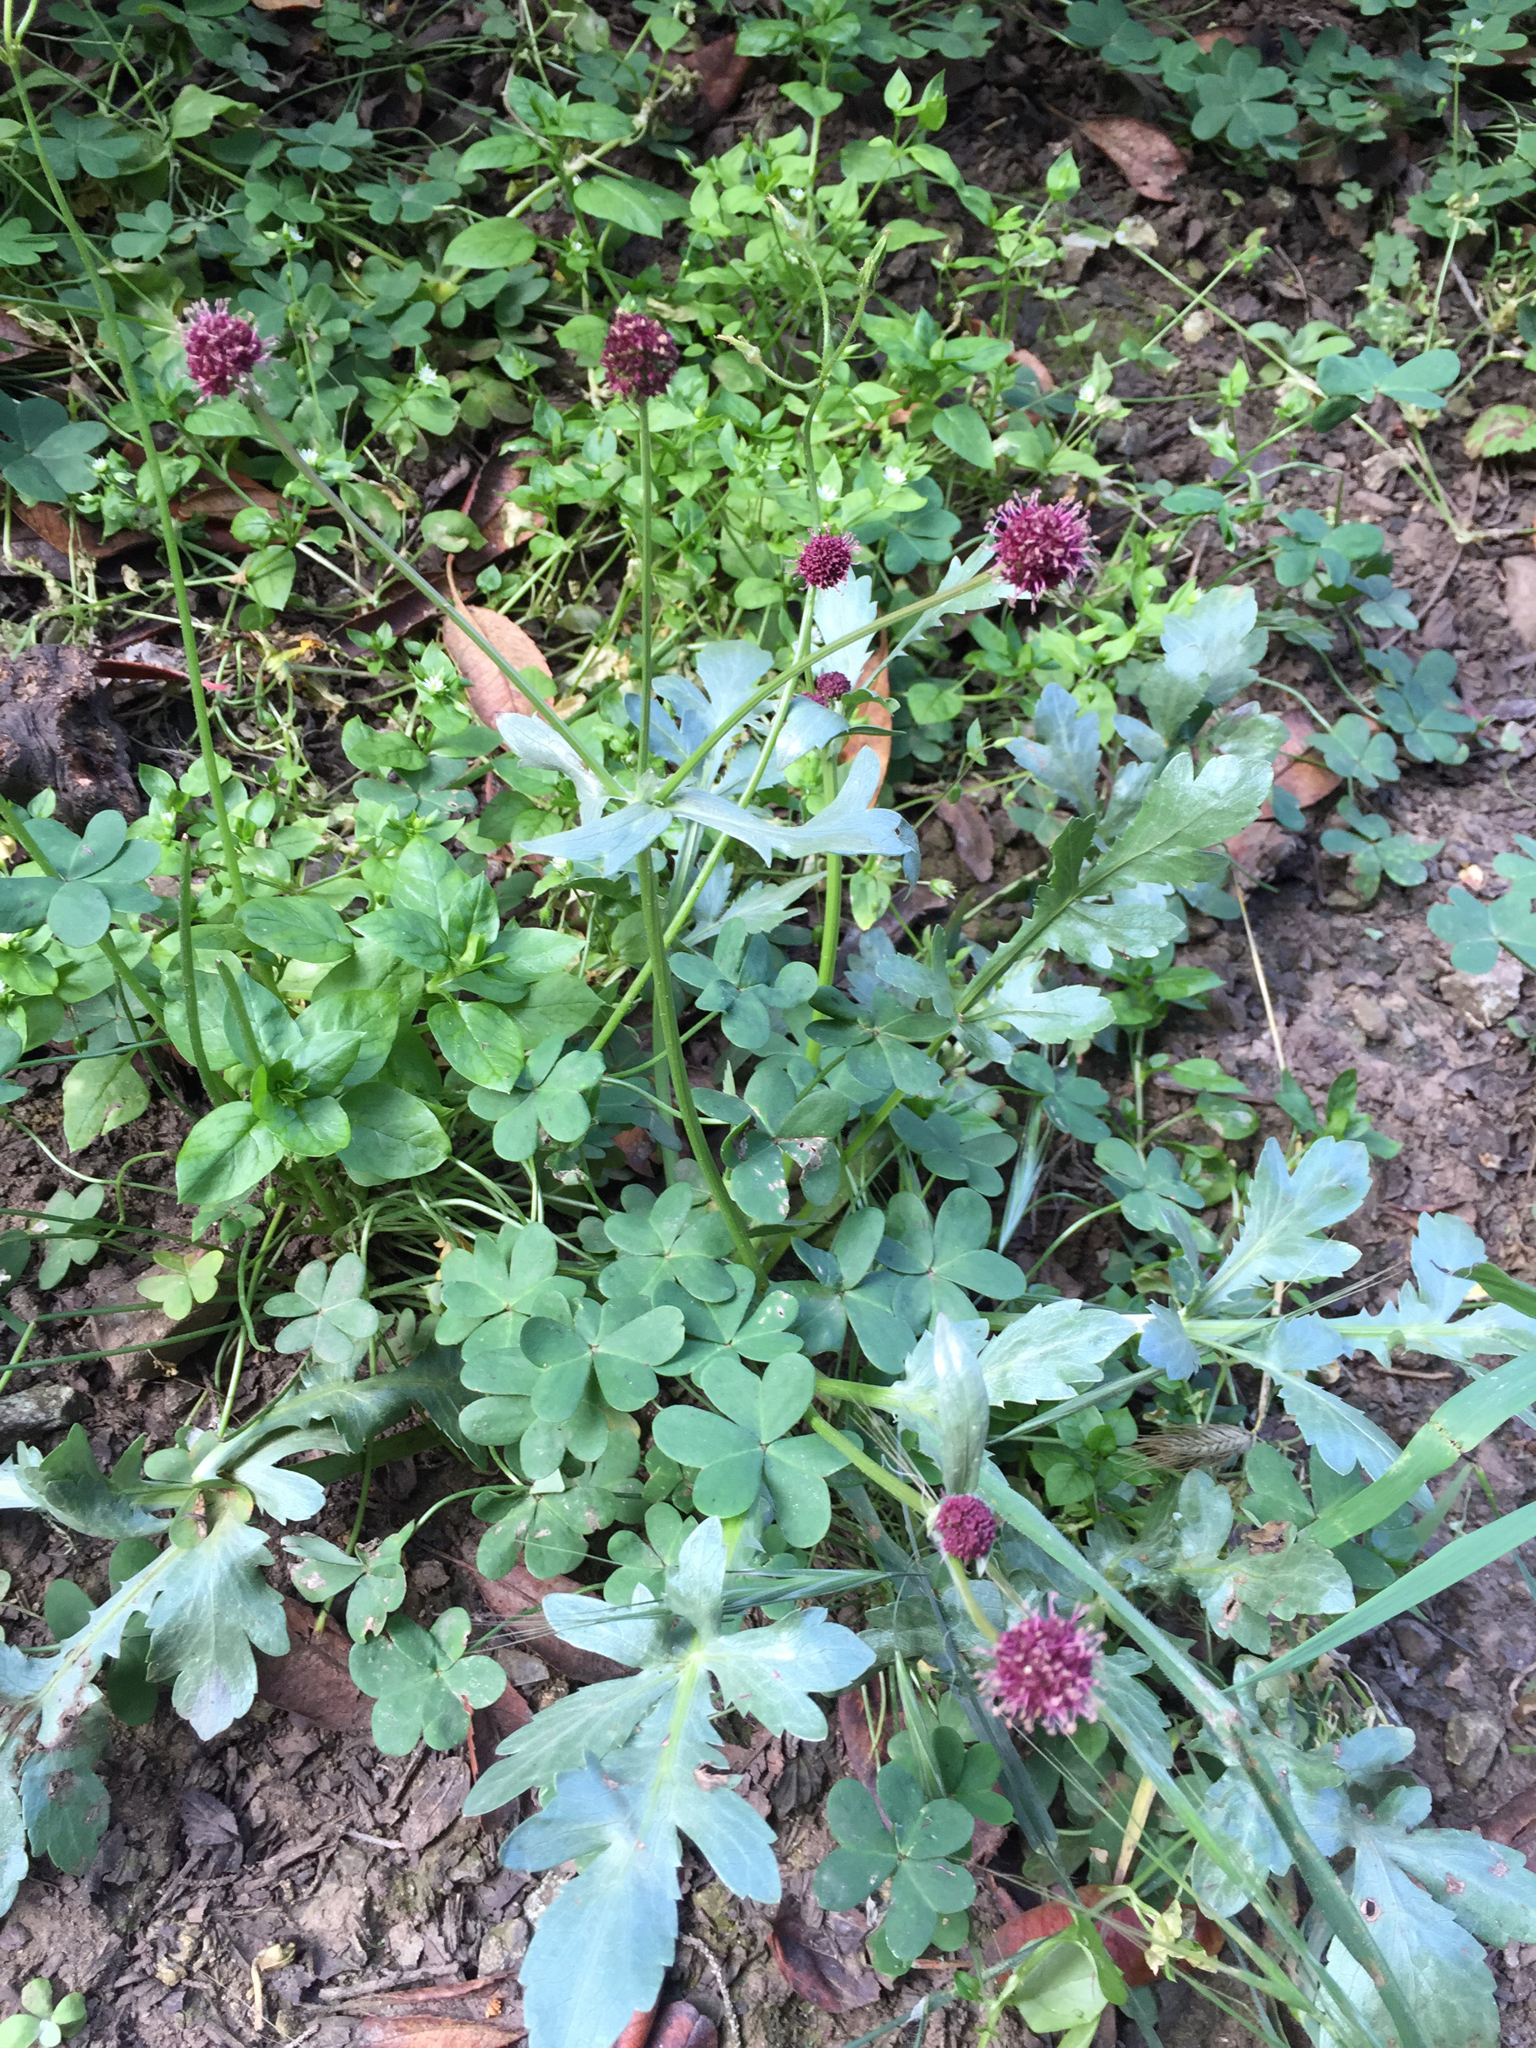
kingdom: Plantae
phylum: Tracheophyta
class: Magnoliopsida
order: Apiales
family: Apiaceae
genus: Sanicula
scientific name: Sanicula bipinnatifida
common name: Shoe-buttons
